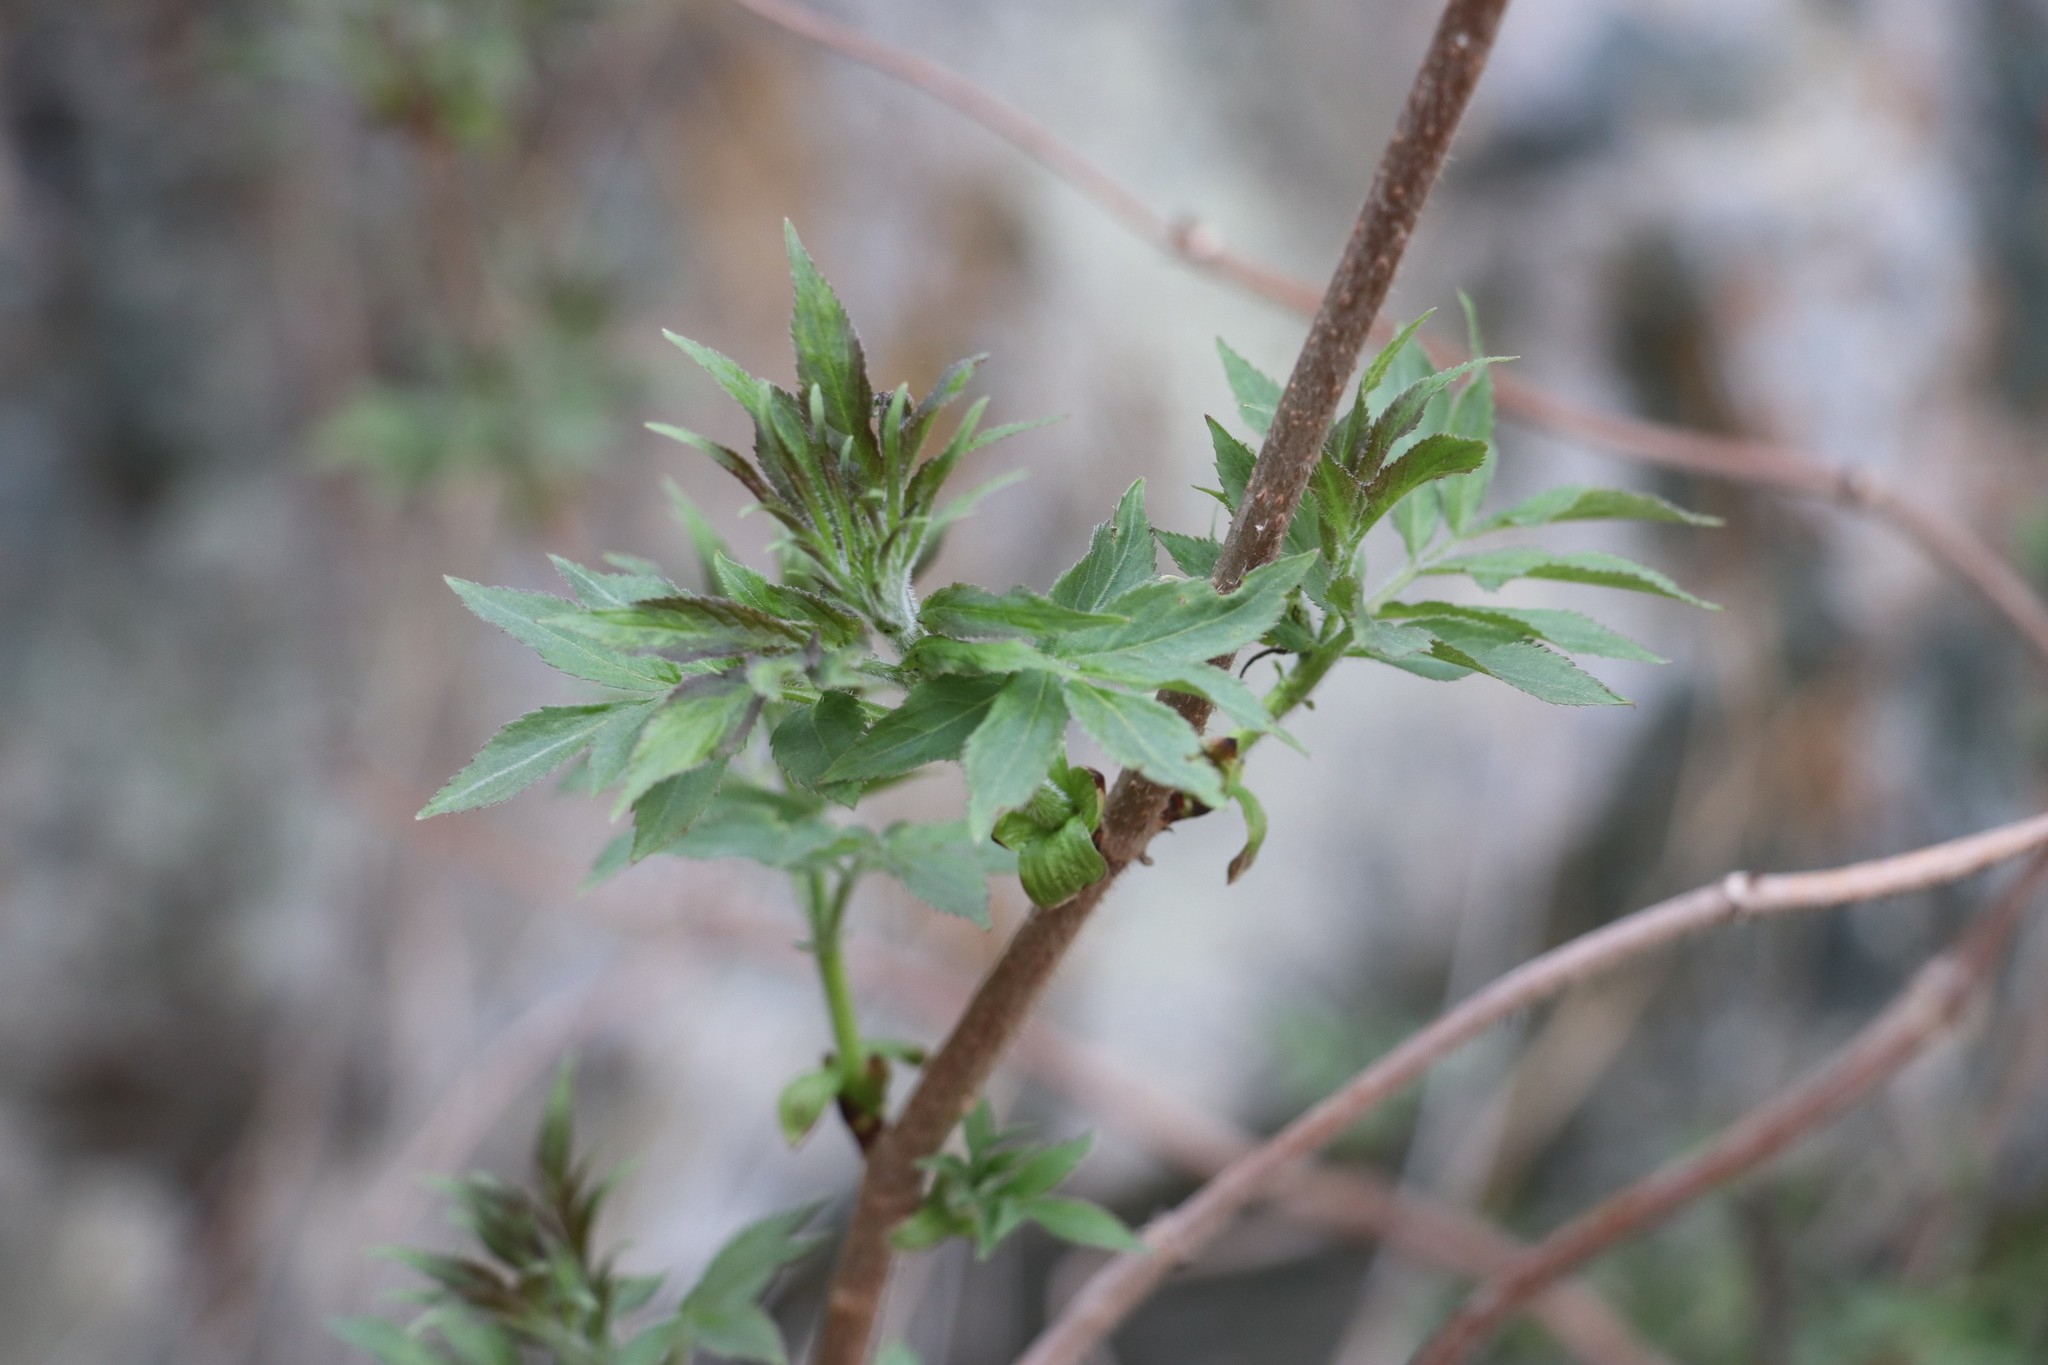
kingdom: Plantae
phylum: Tracheophyta
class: Magnoliopsida
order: Dipsacales
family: Viburnaceae
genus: Sambucus
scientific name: Sambucus sibirica
